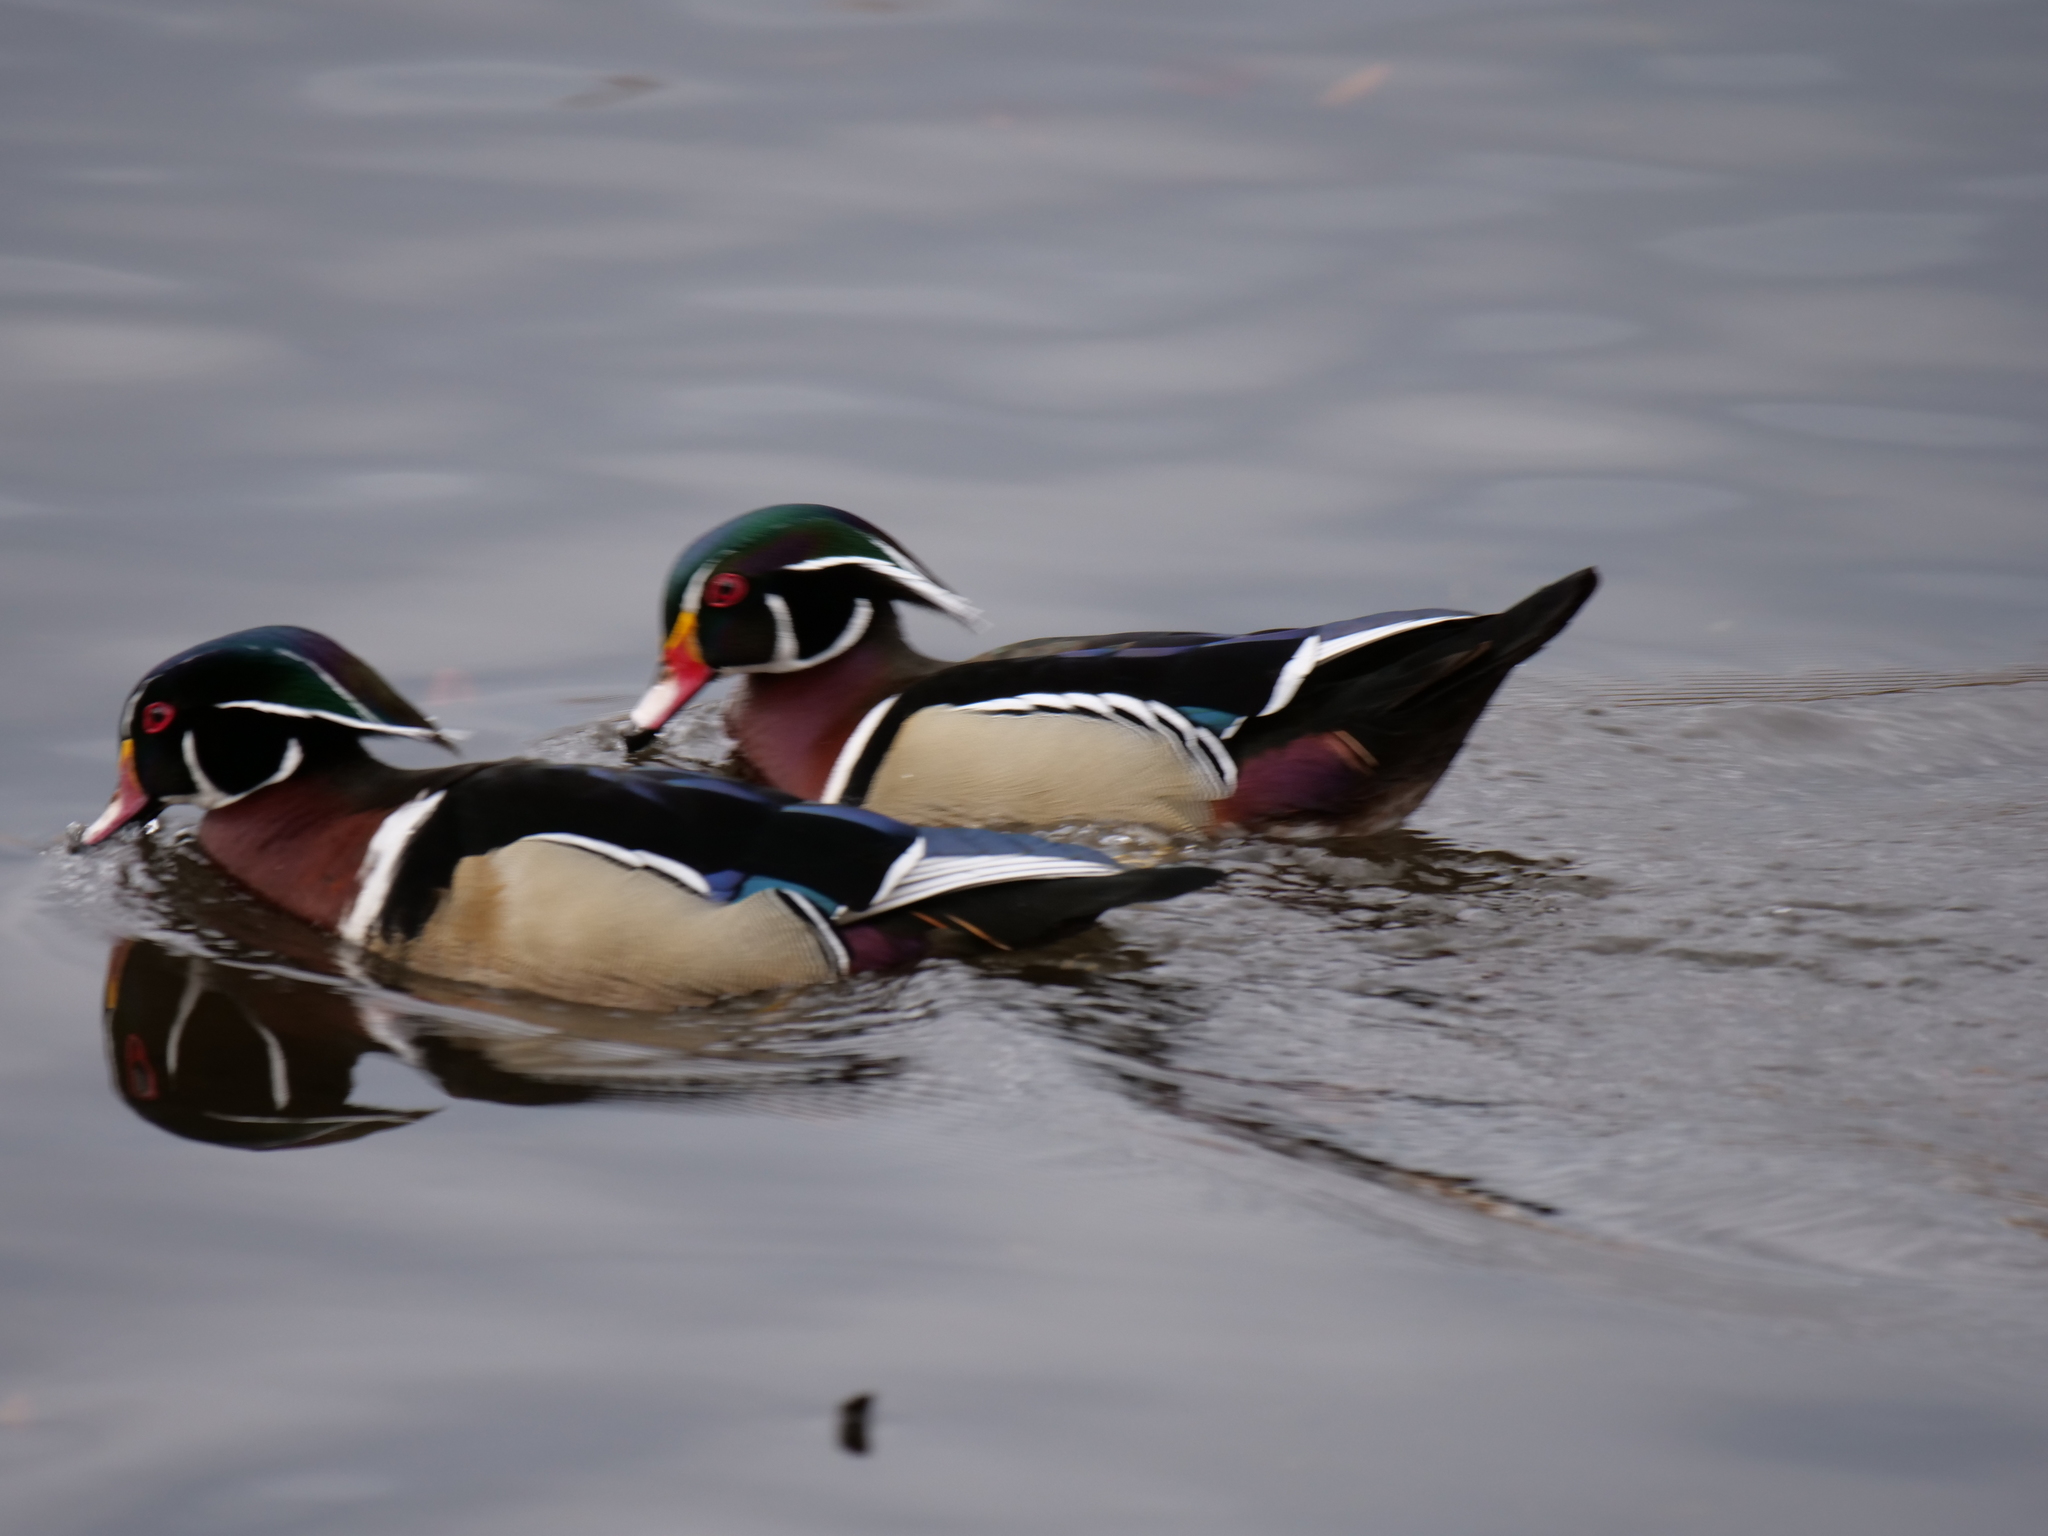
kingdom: Animalia
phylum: Chordata
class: Aves
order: Anseriformes
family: Anatidae
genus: Aix
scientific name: Aix sponsa
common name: Wood duck
